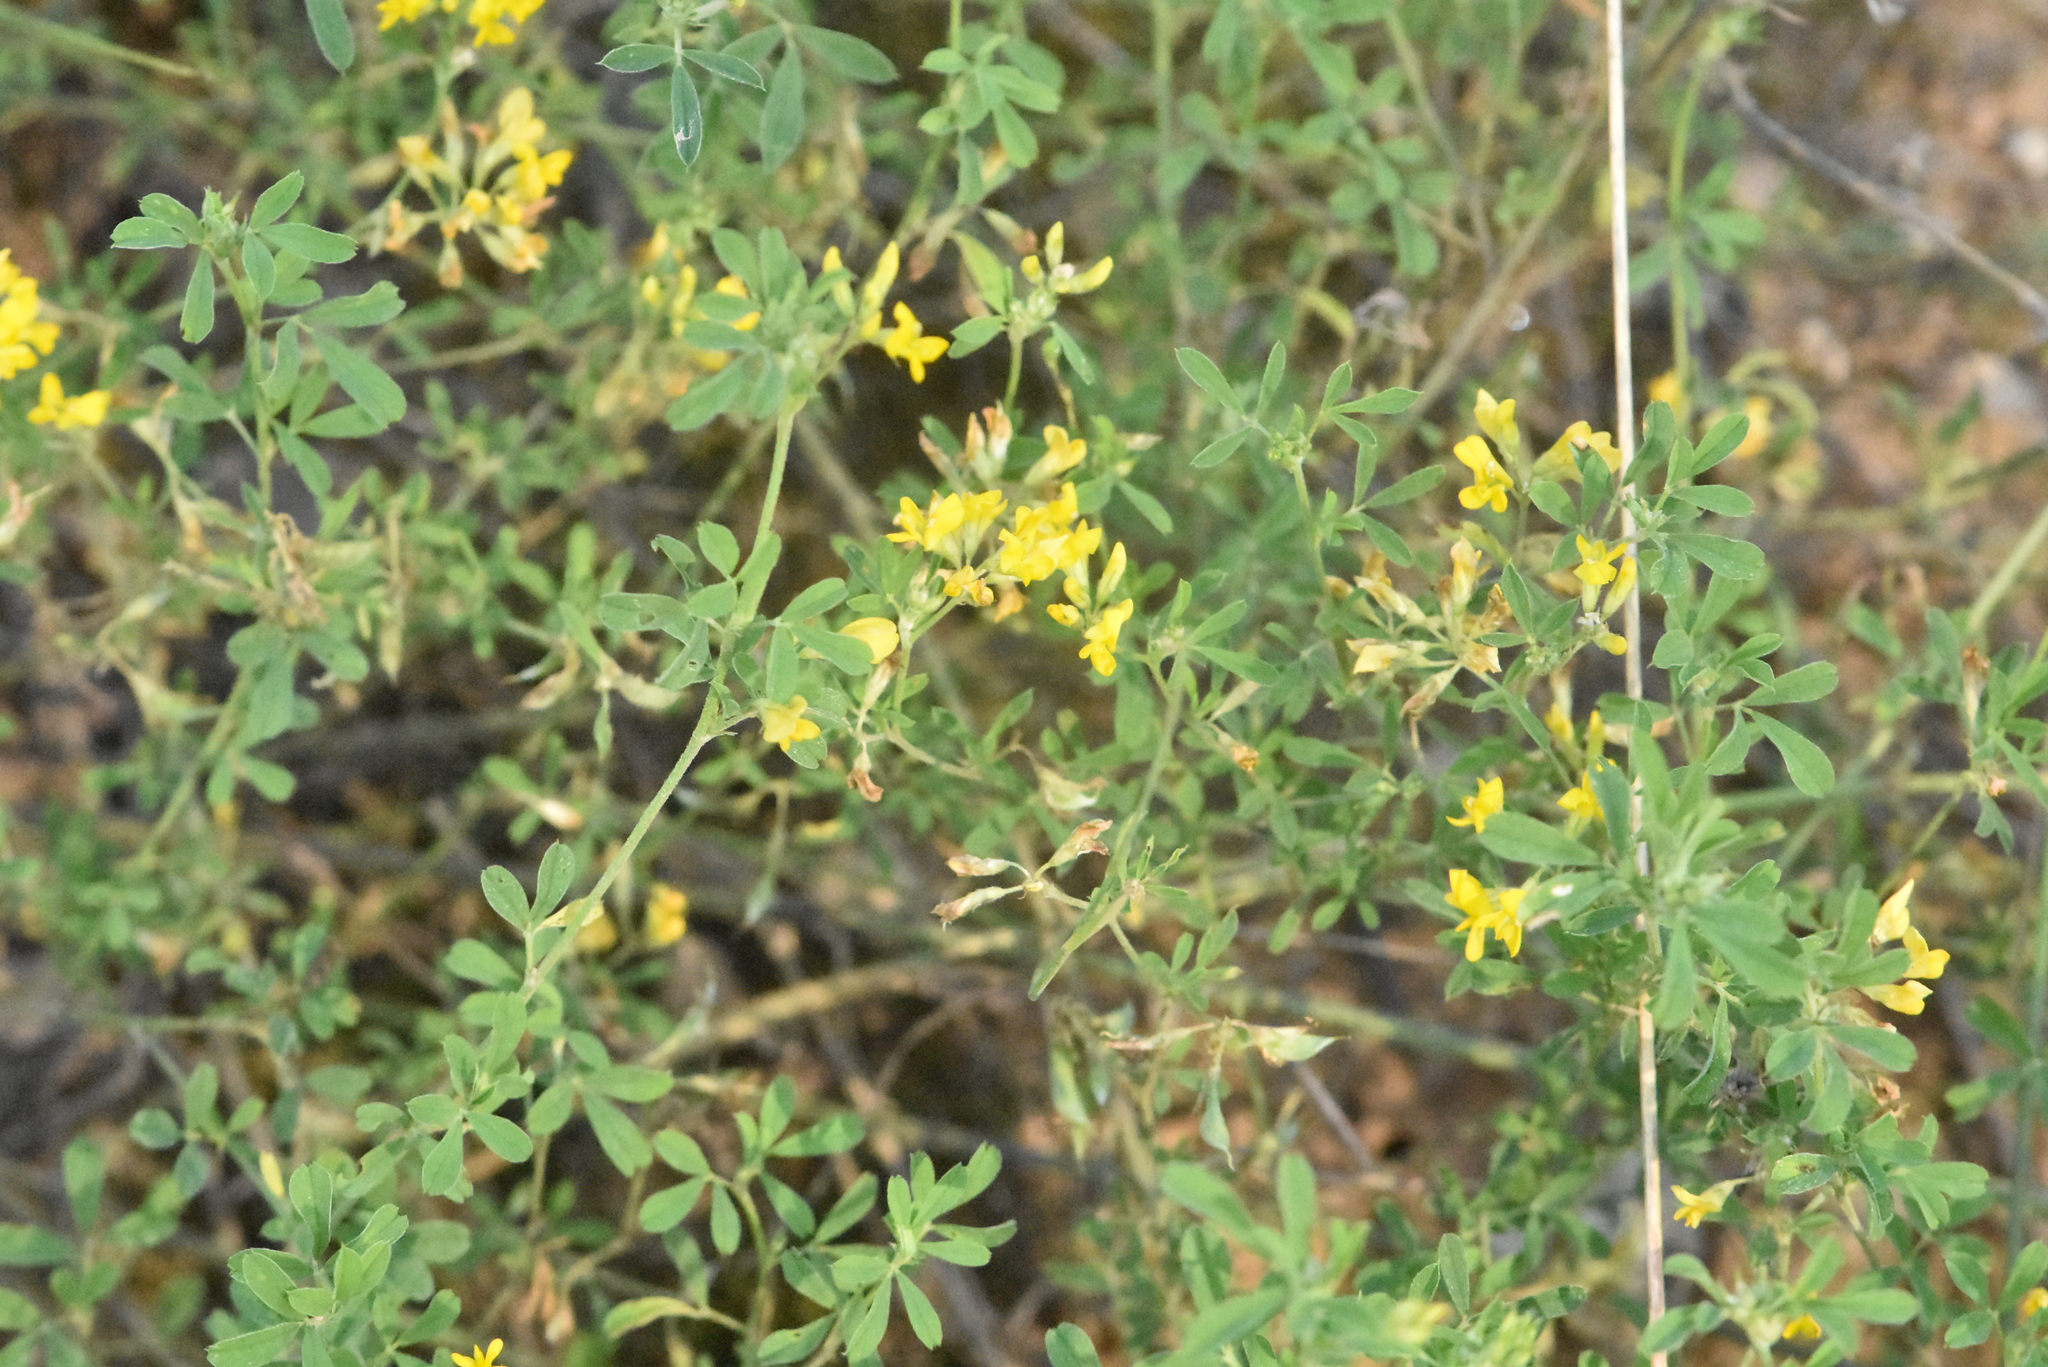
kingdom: Plantae
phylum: Tracheophyta
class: Magnoliopsida
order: Fabales
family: Fabaceae
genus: Medicago
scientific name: Medicago falcata
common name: Sickle medick
